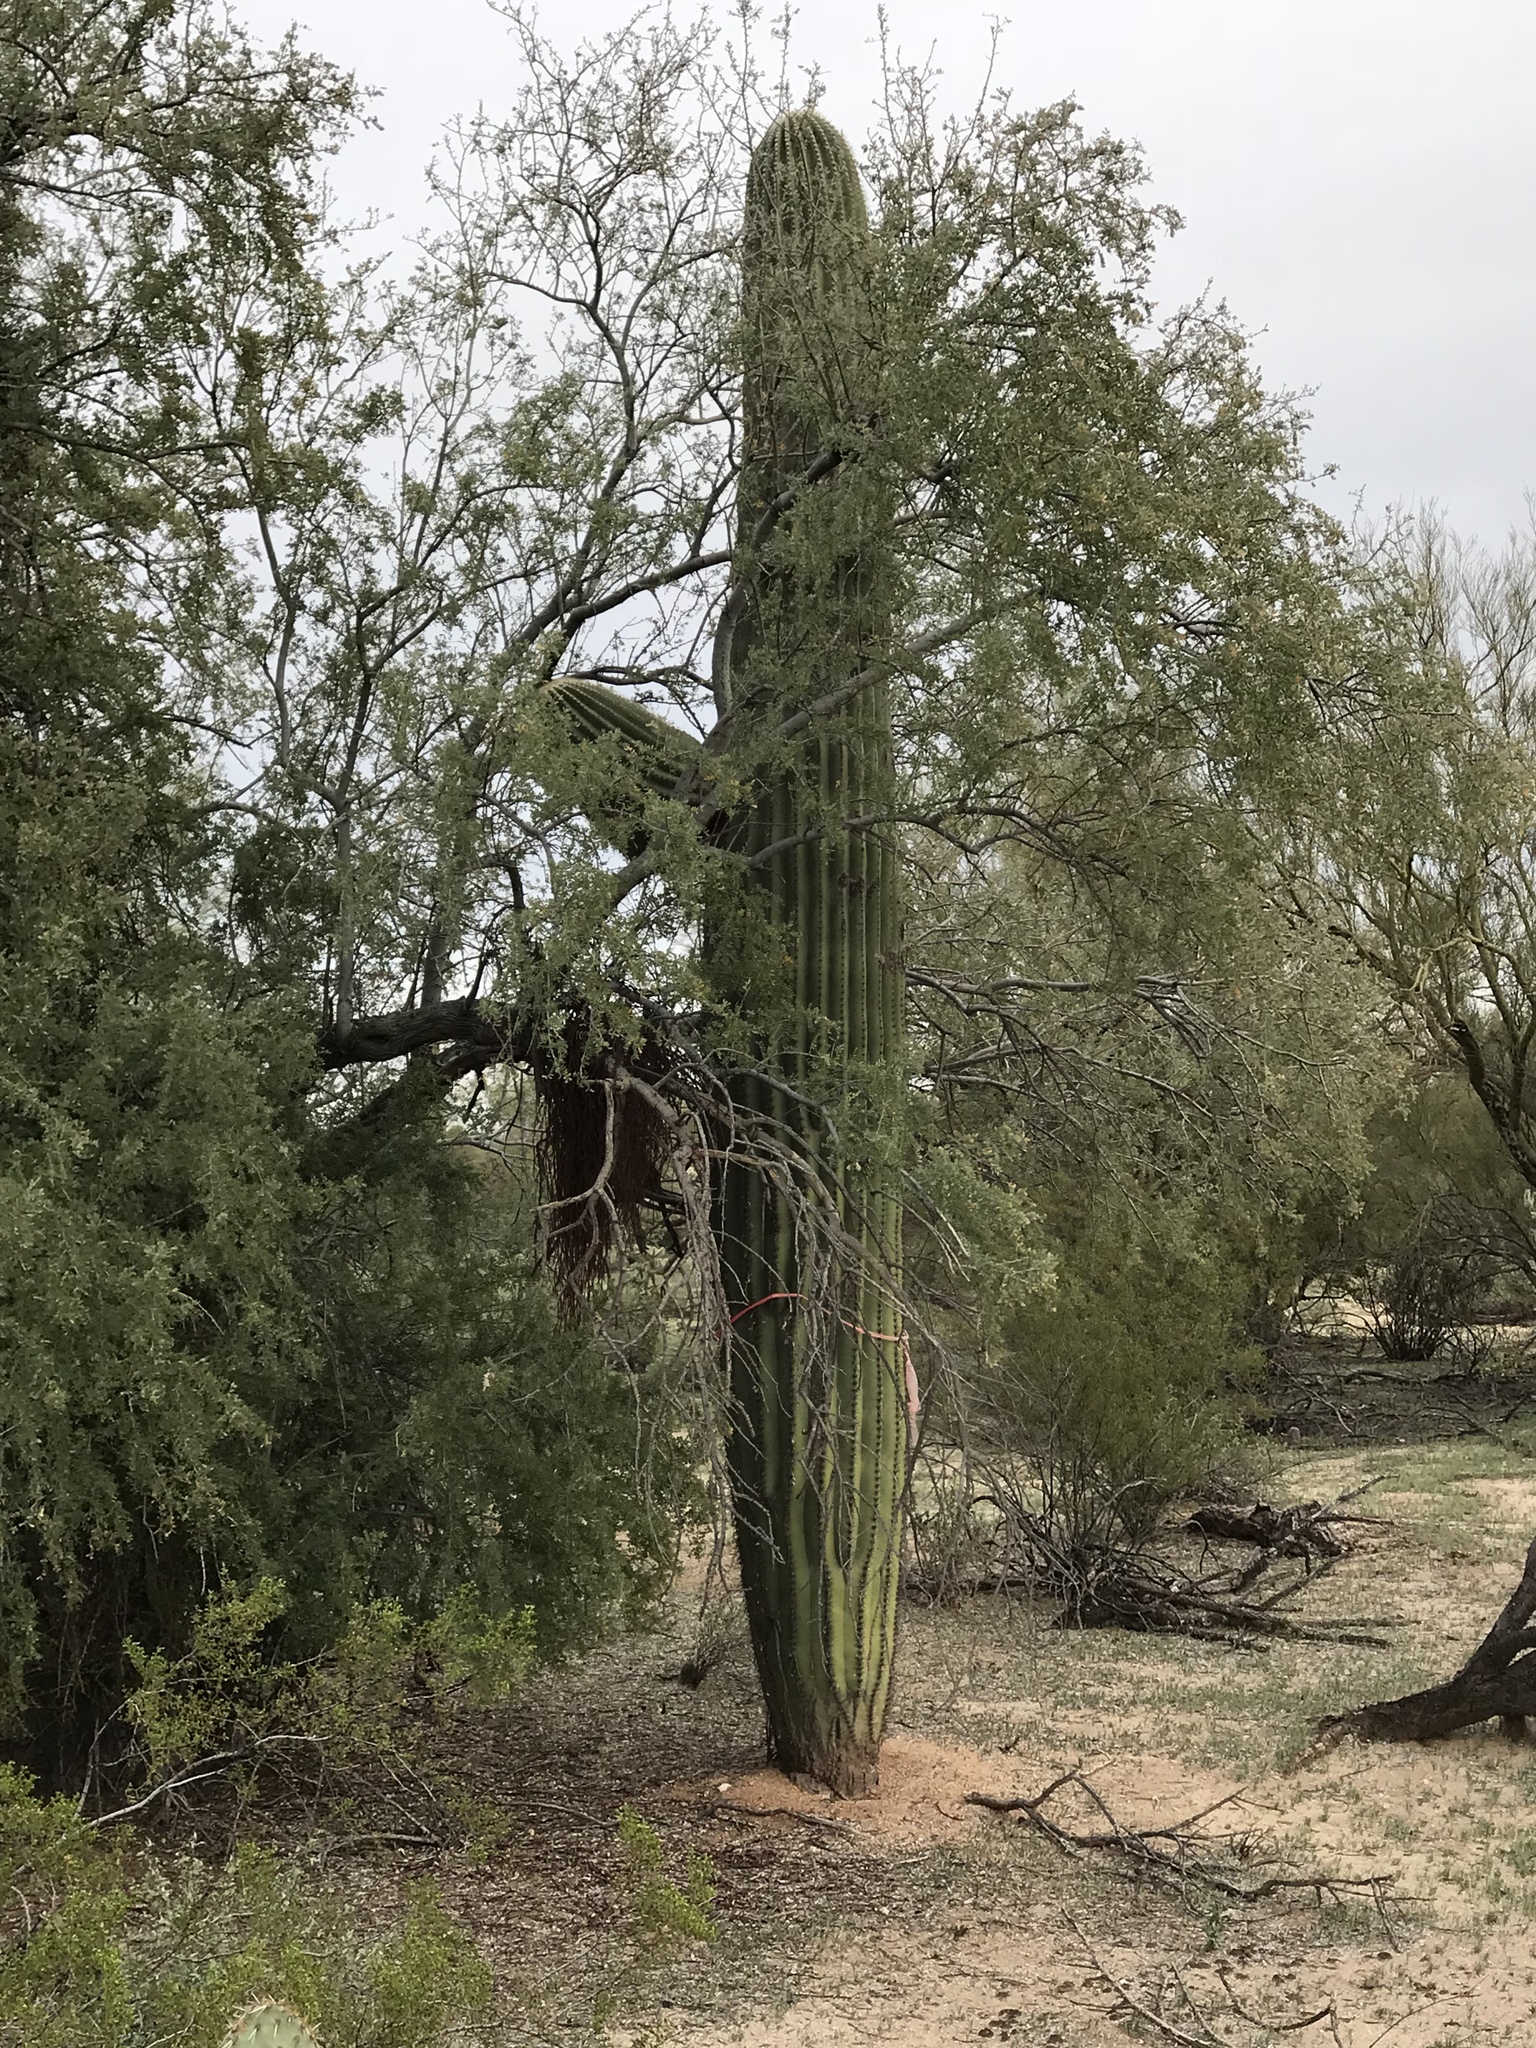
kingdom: Plantae
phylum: Tracheophyta
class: Magnoliopsida
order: Caryophyllales
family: Cactaceae
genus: Carnegiea
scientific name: Carnegiea gigantea
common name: Saguaro
